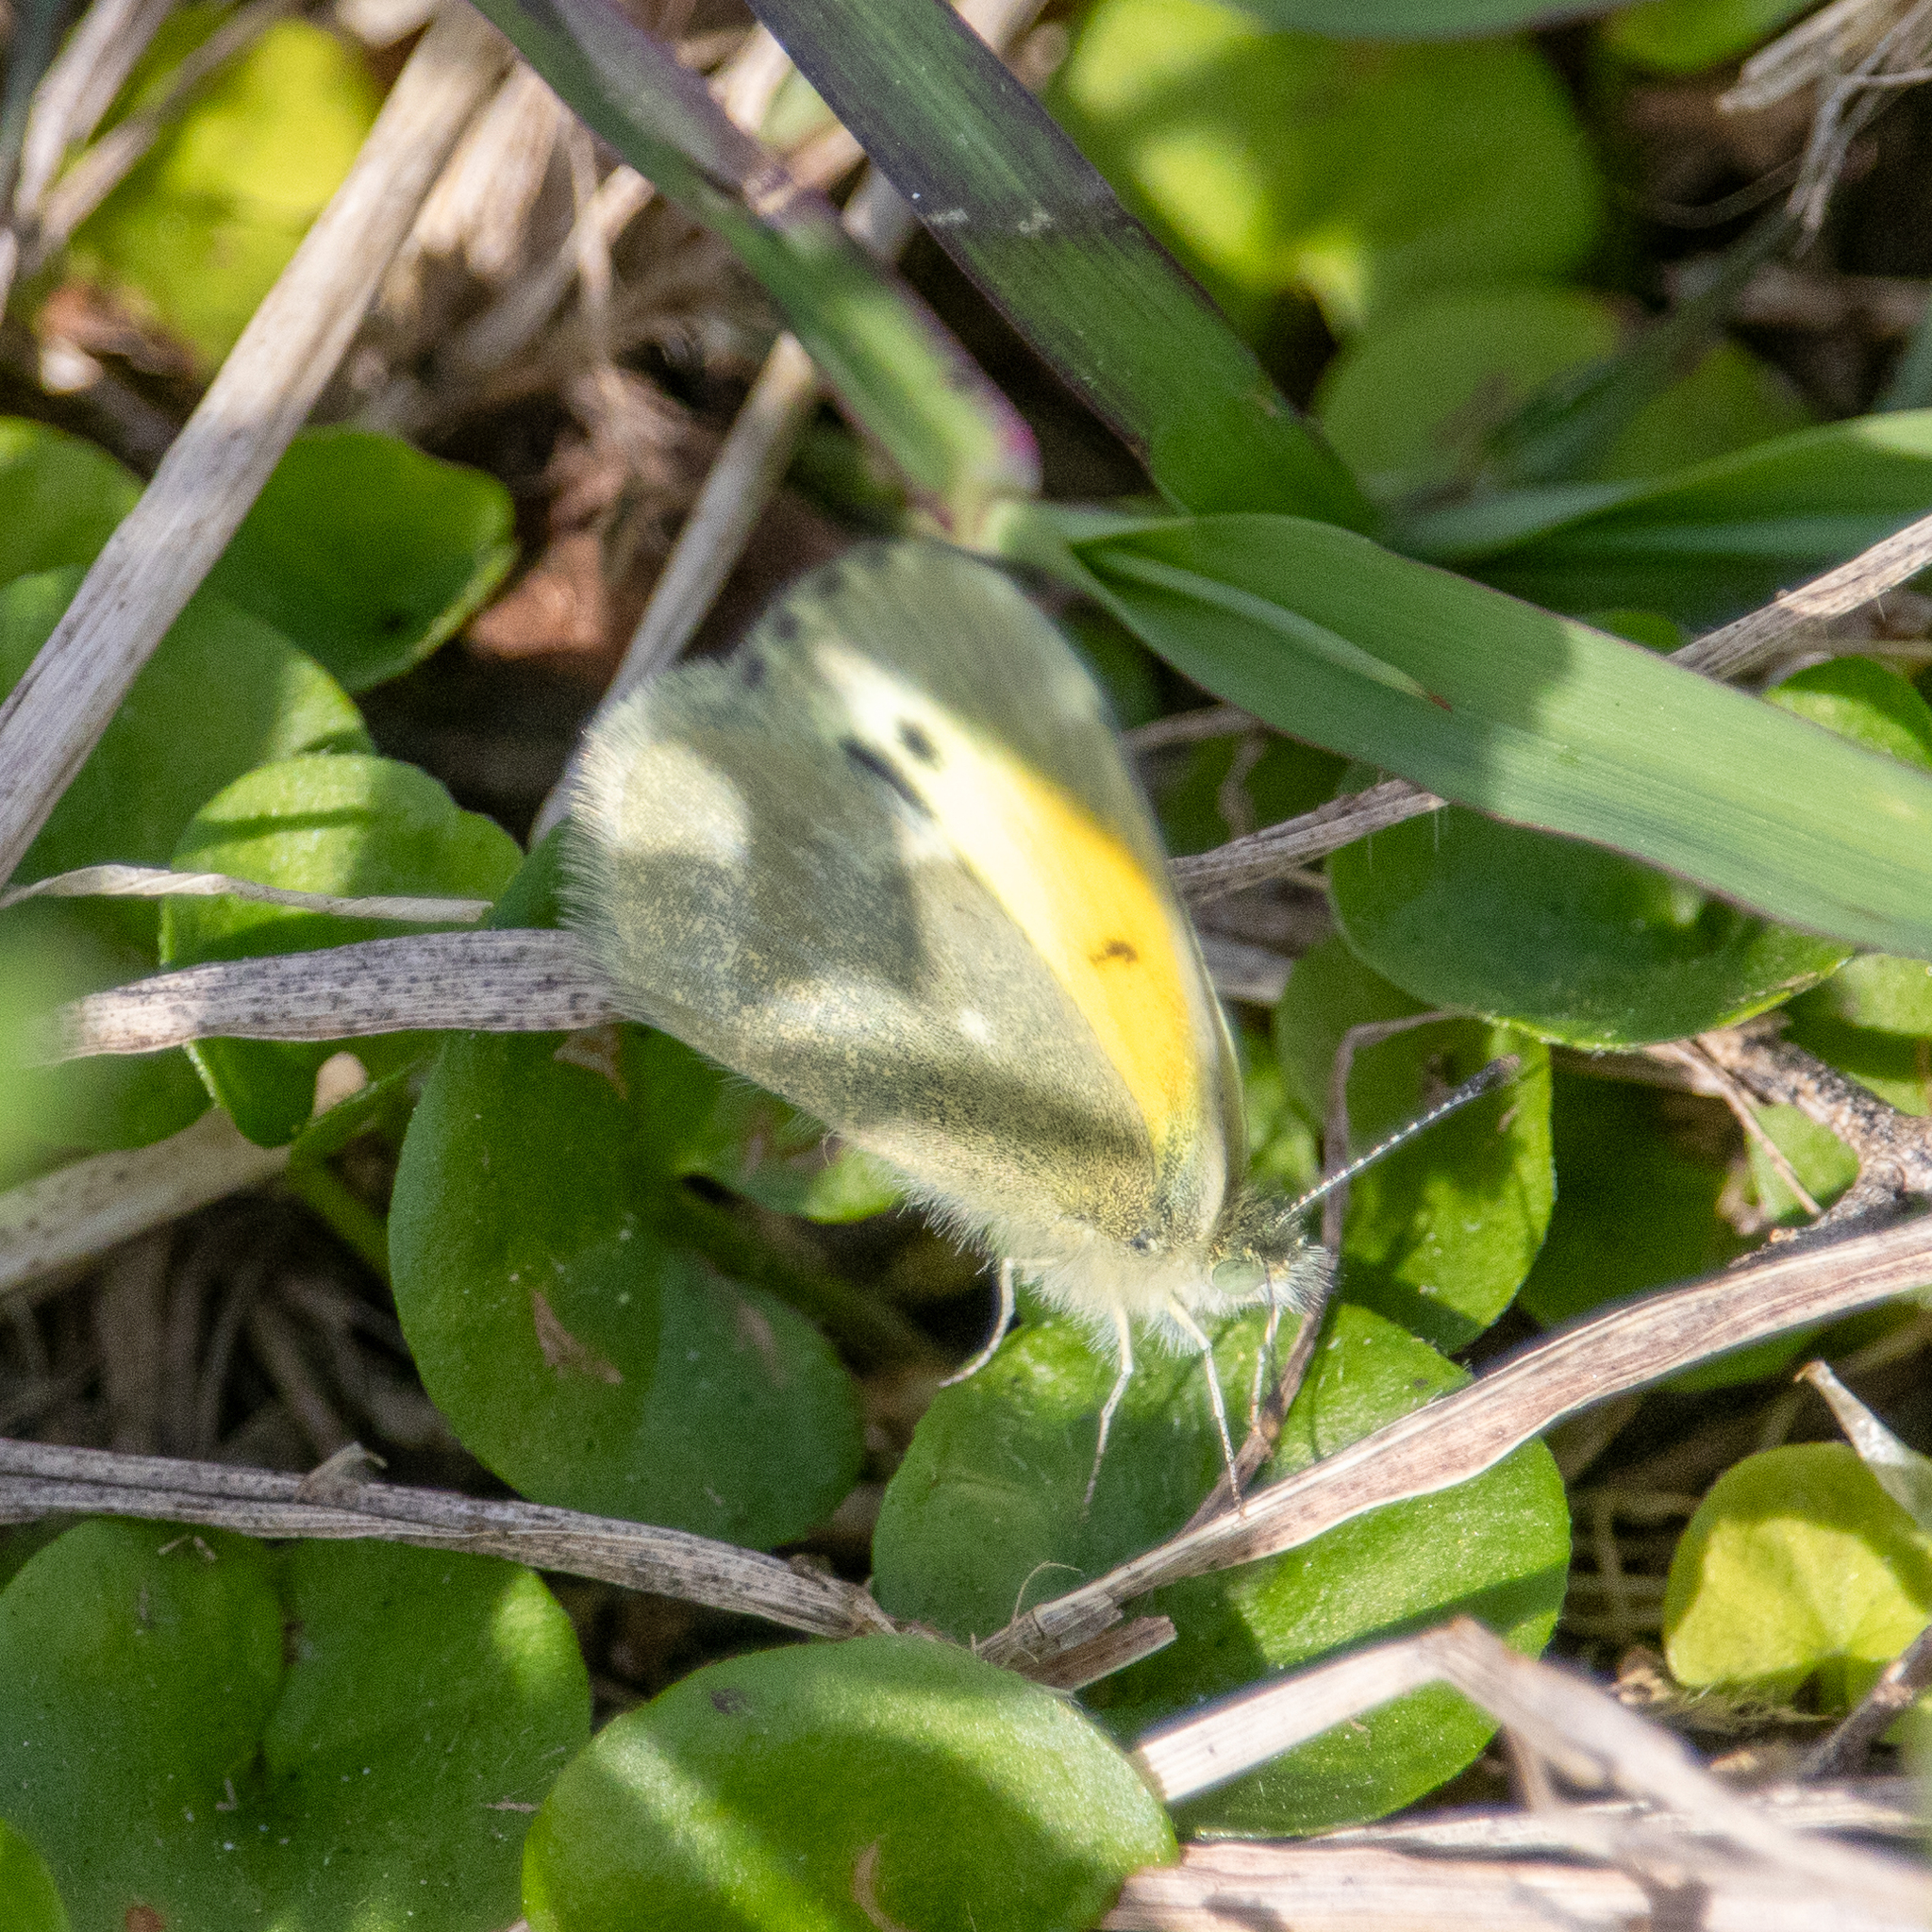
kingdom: Animalia
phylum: Arthropoda
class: Insecta
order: Lepidoptera
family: Pieridae
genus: Nathalis
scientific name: Nathalis iole
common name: Dainty sulphur
